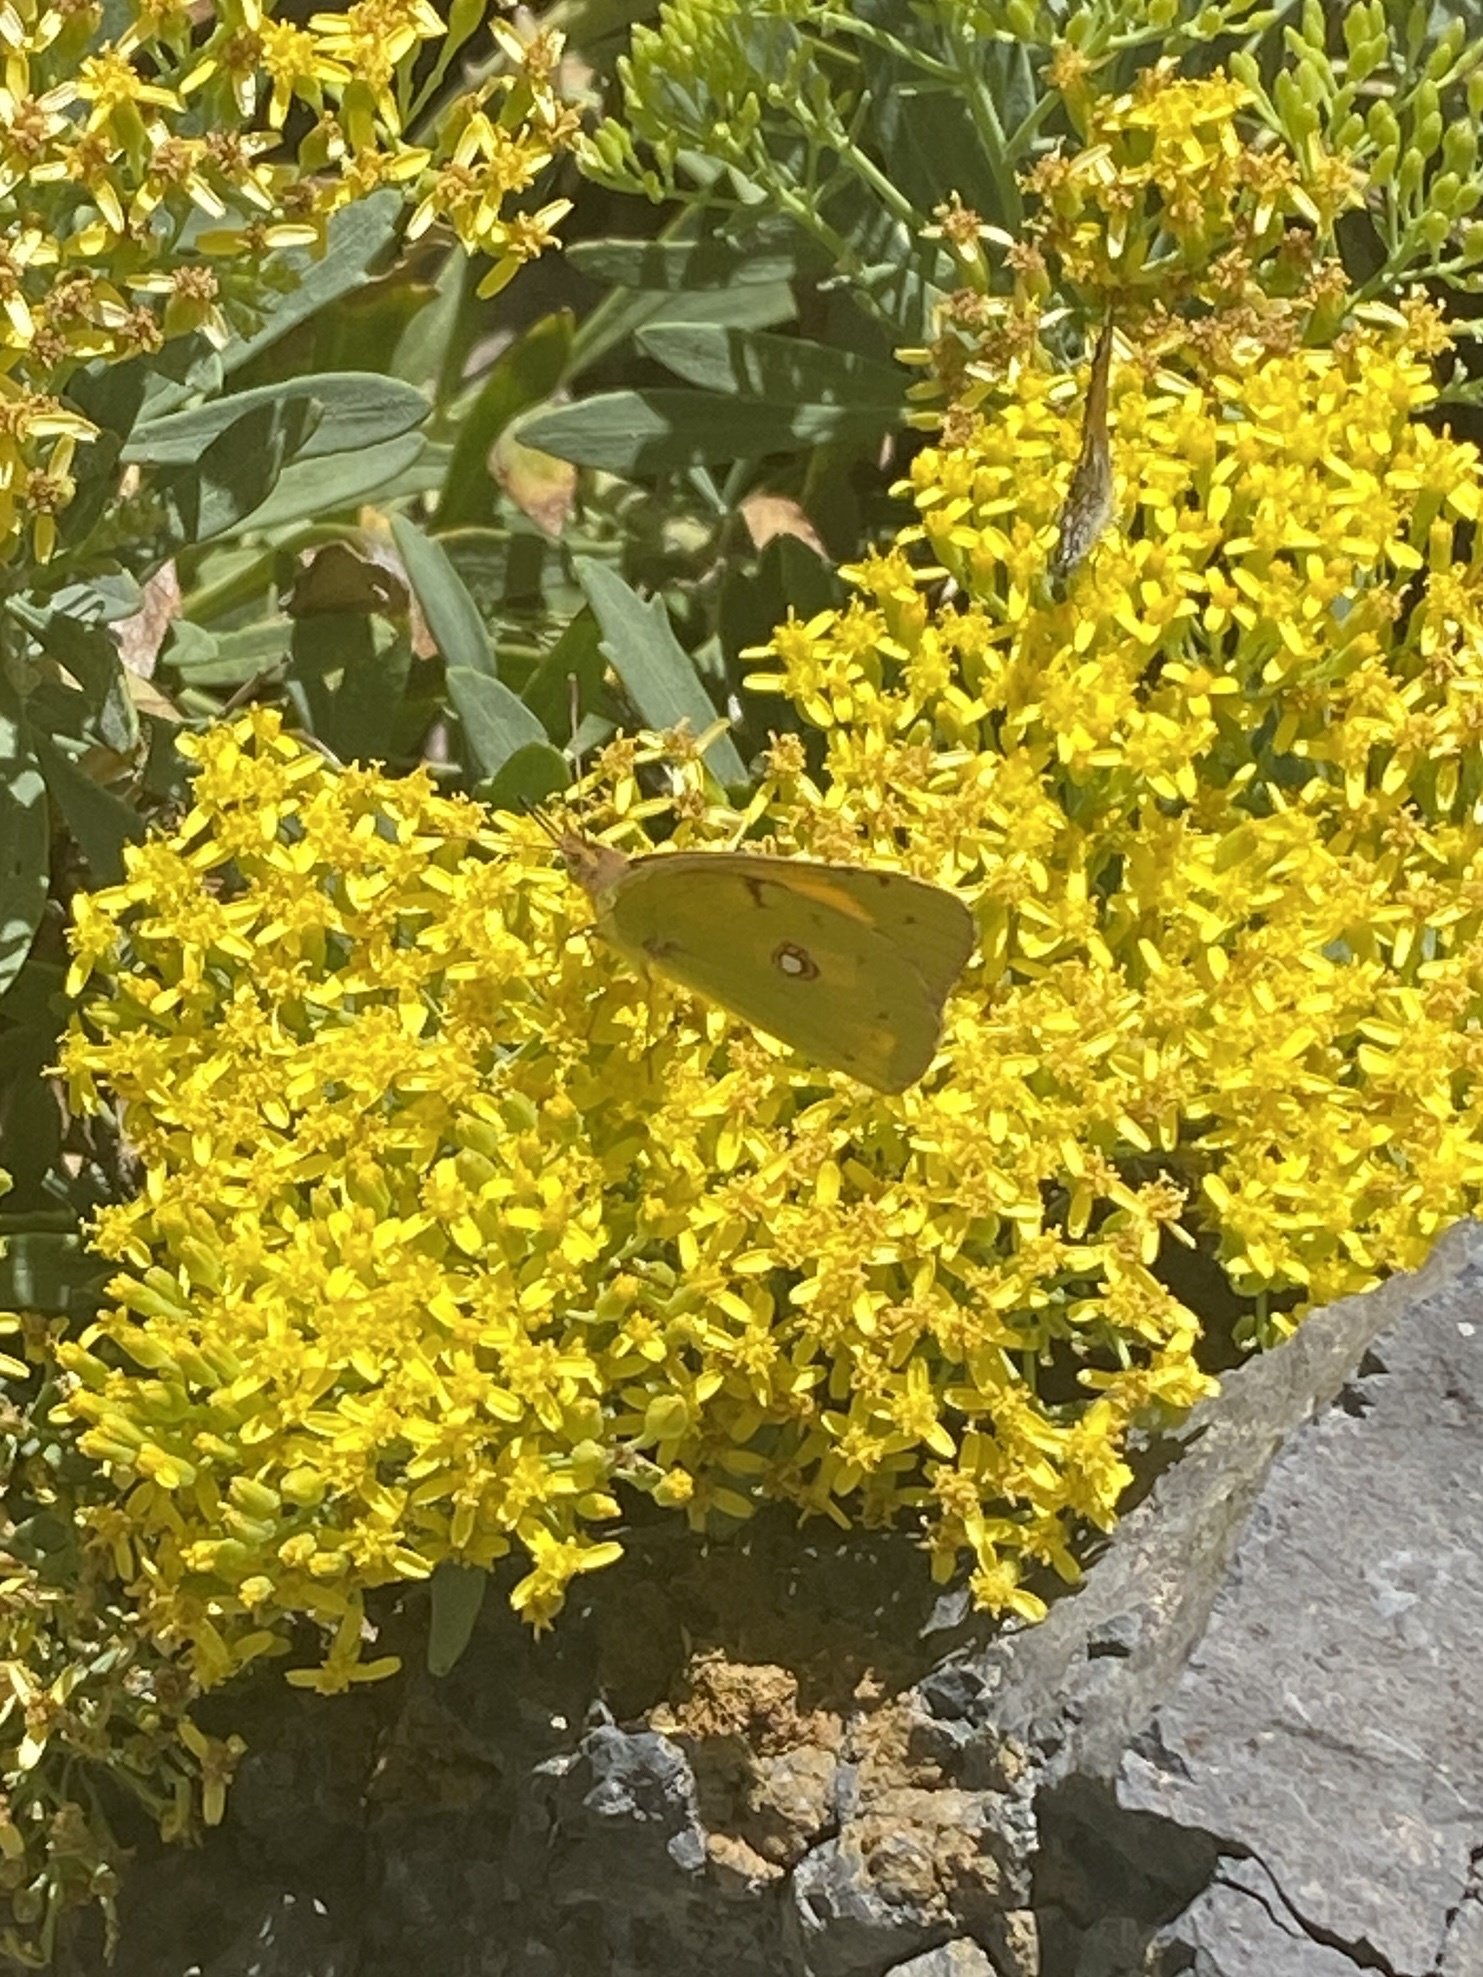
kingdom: Animalia
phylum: Arthropoda
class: Insecta
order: Lepidoptera
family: Pieridae
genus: Colias
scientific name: Colias croceus
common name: Clouded yellow
